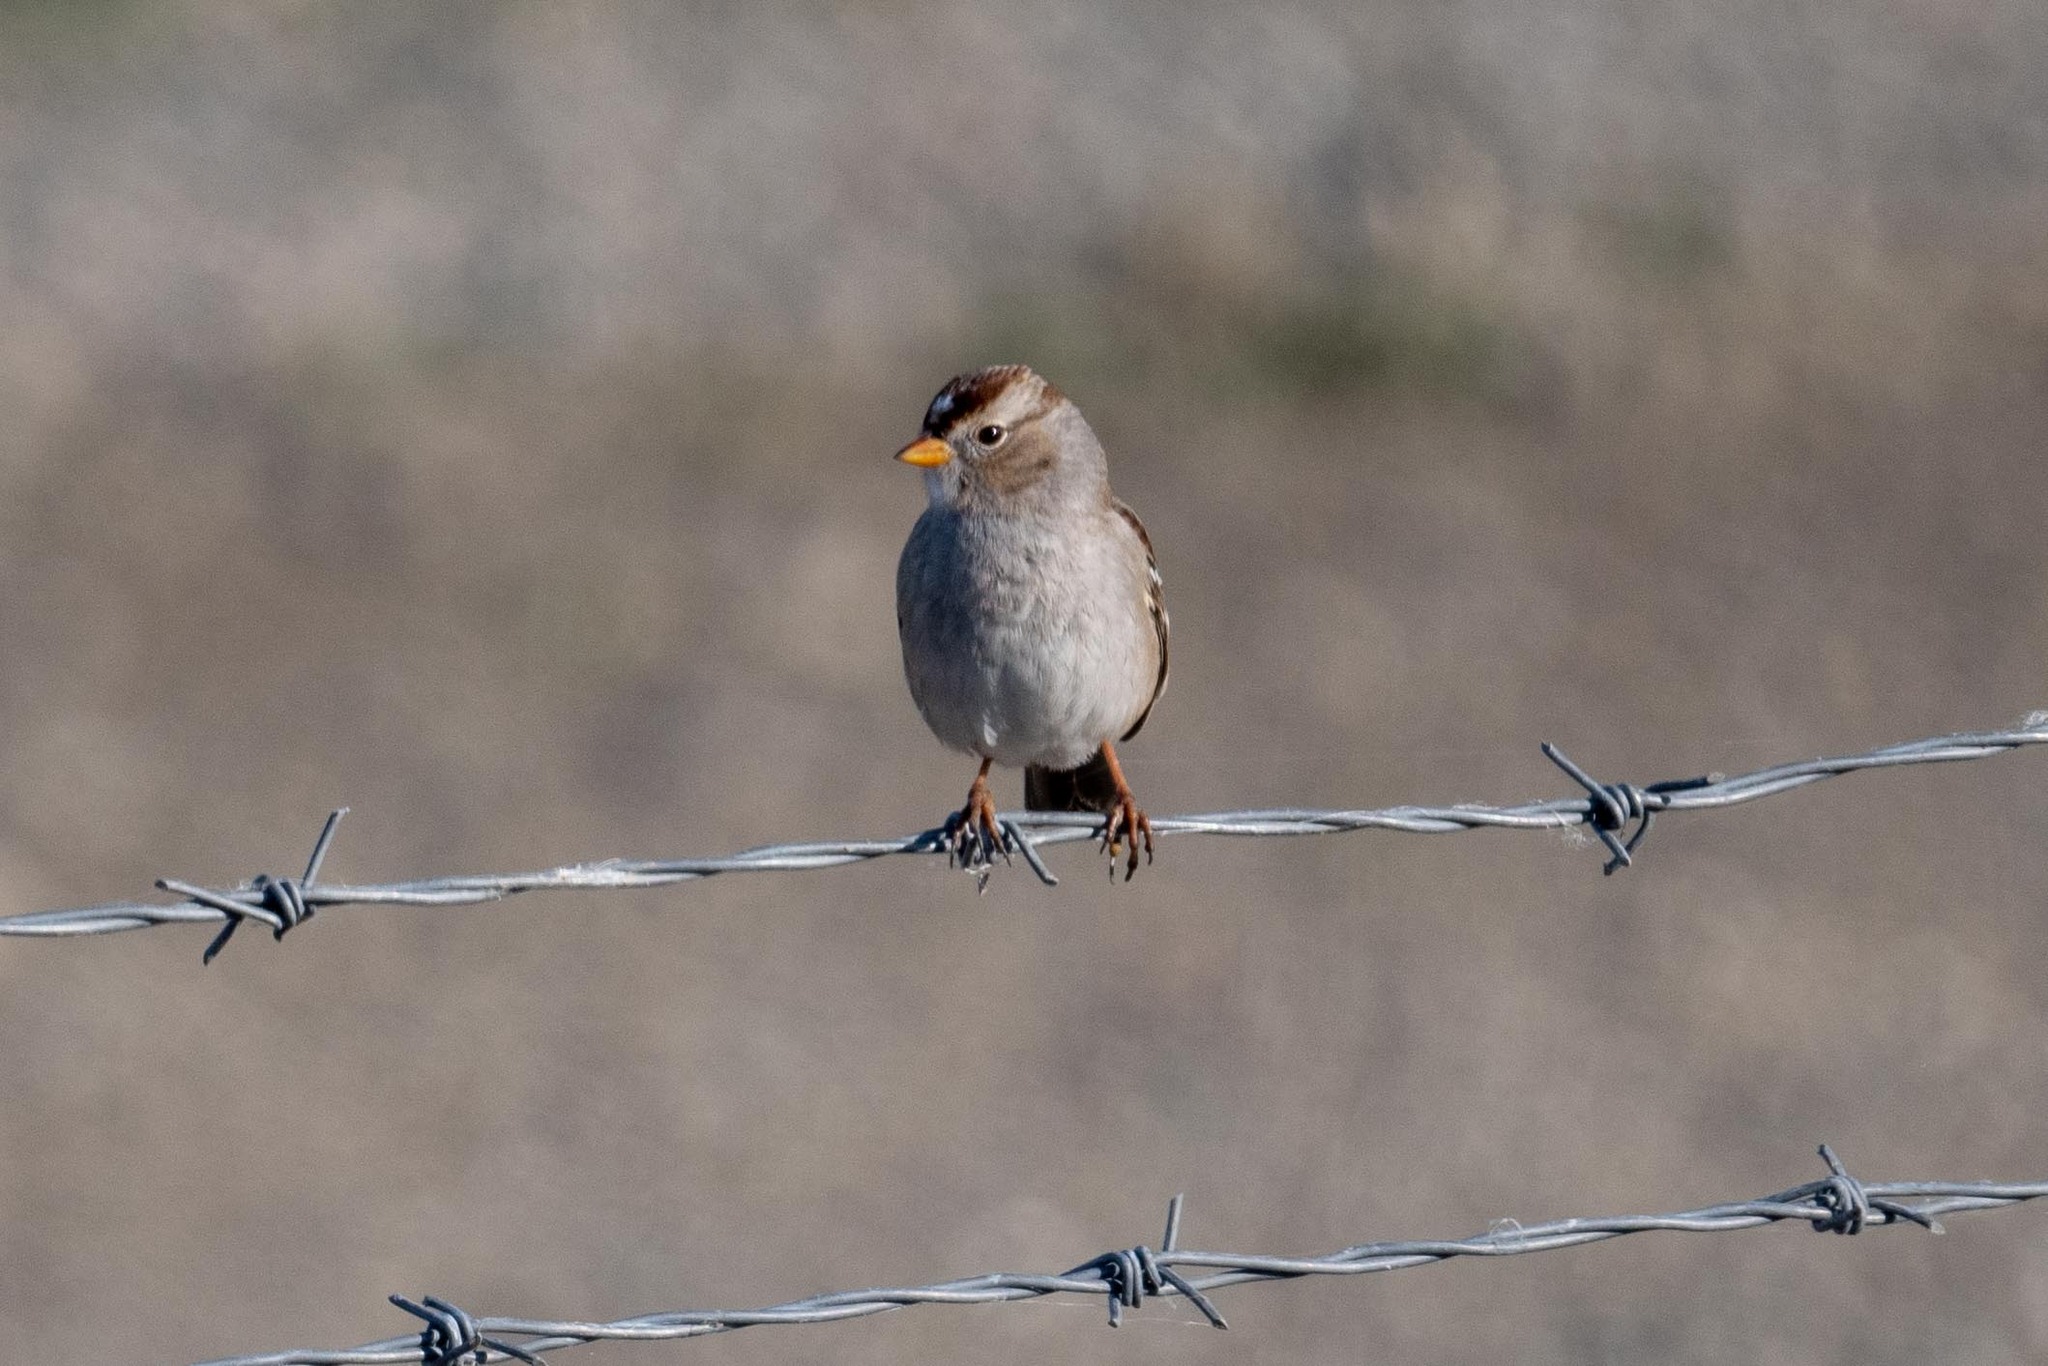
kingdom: Animalia
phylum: Chordata
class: Aves
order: Passeriformes
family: Passerellidae
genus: Zonotrichia
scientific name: Zonotrichia leucophrys
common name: White-crowned sparrow
